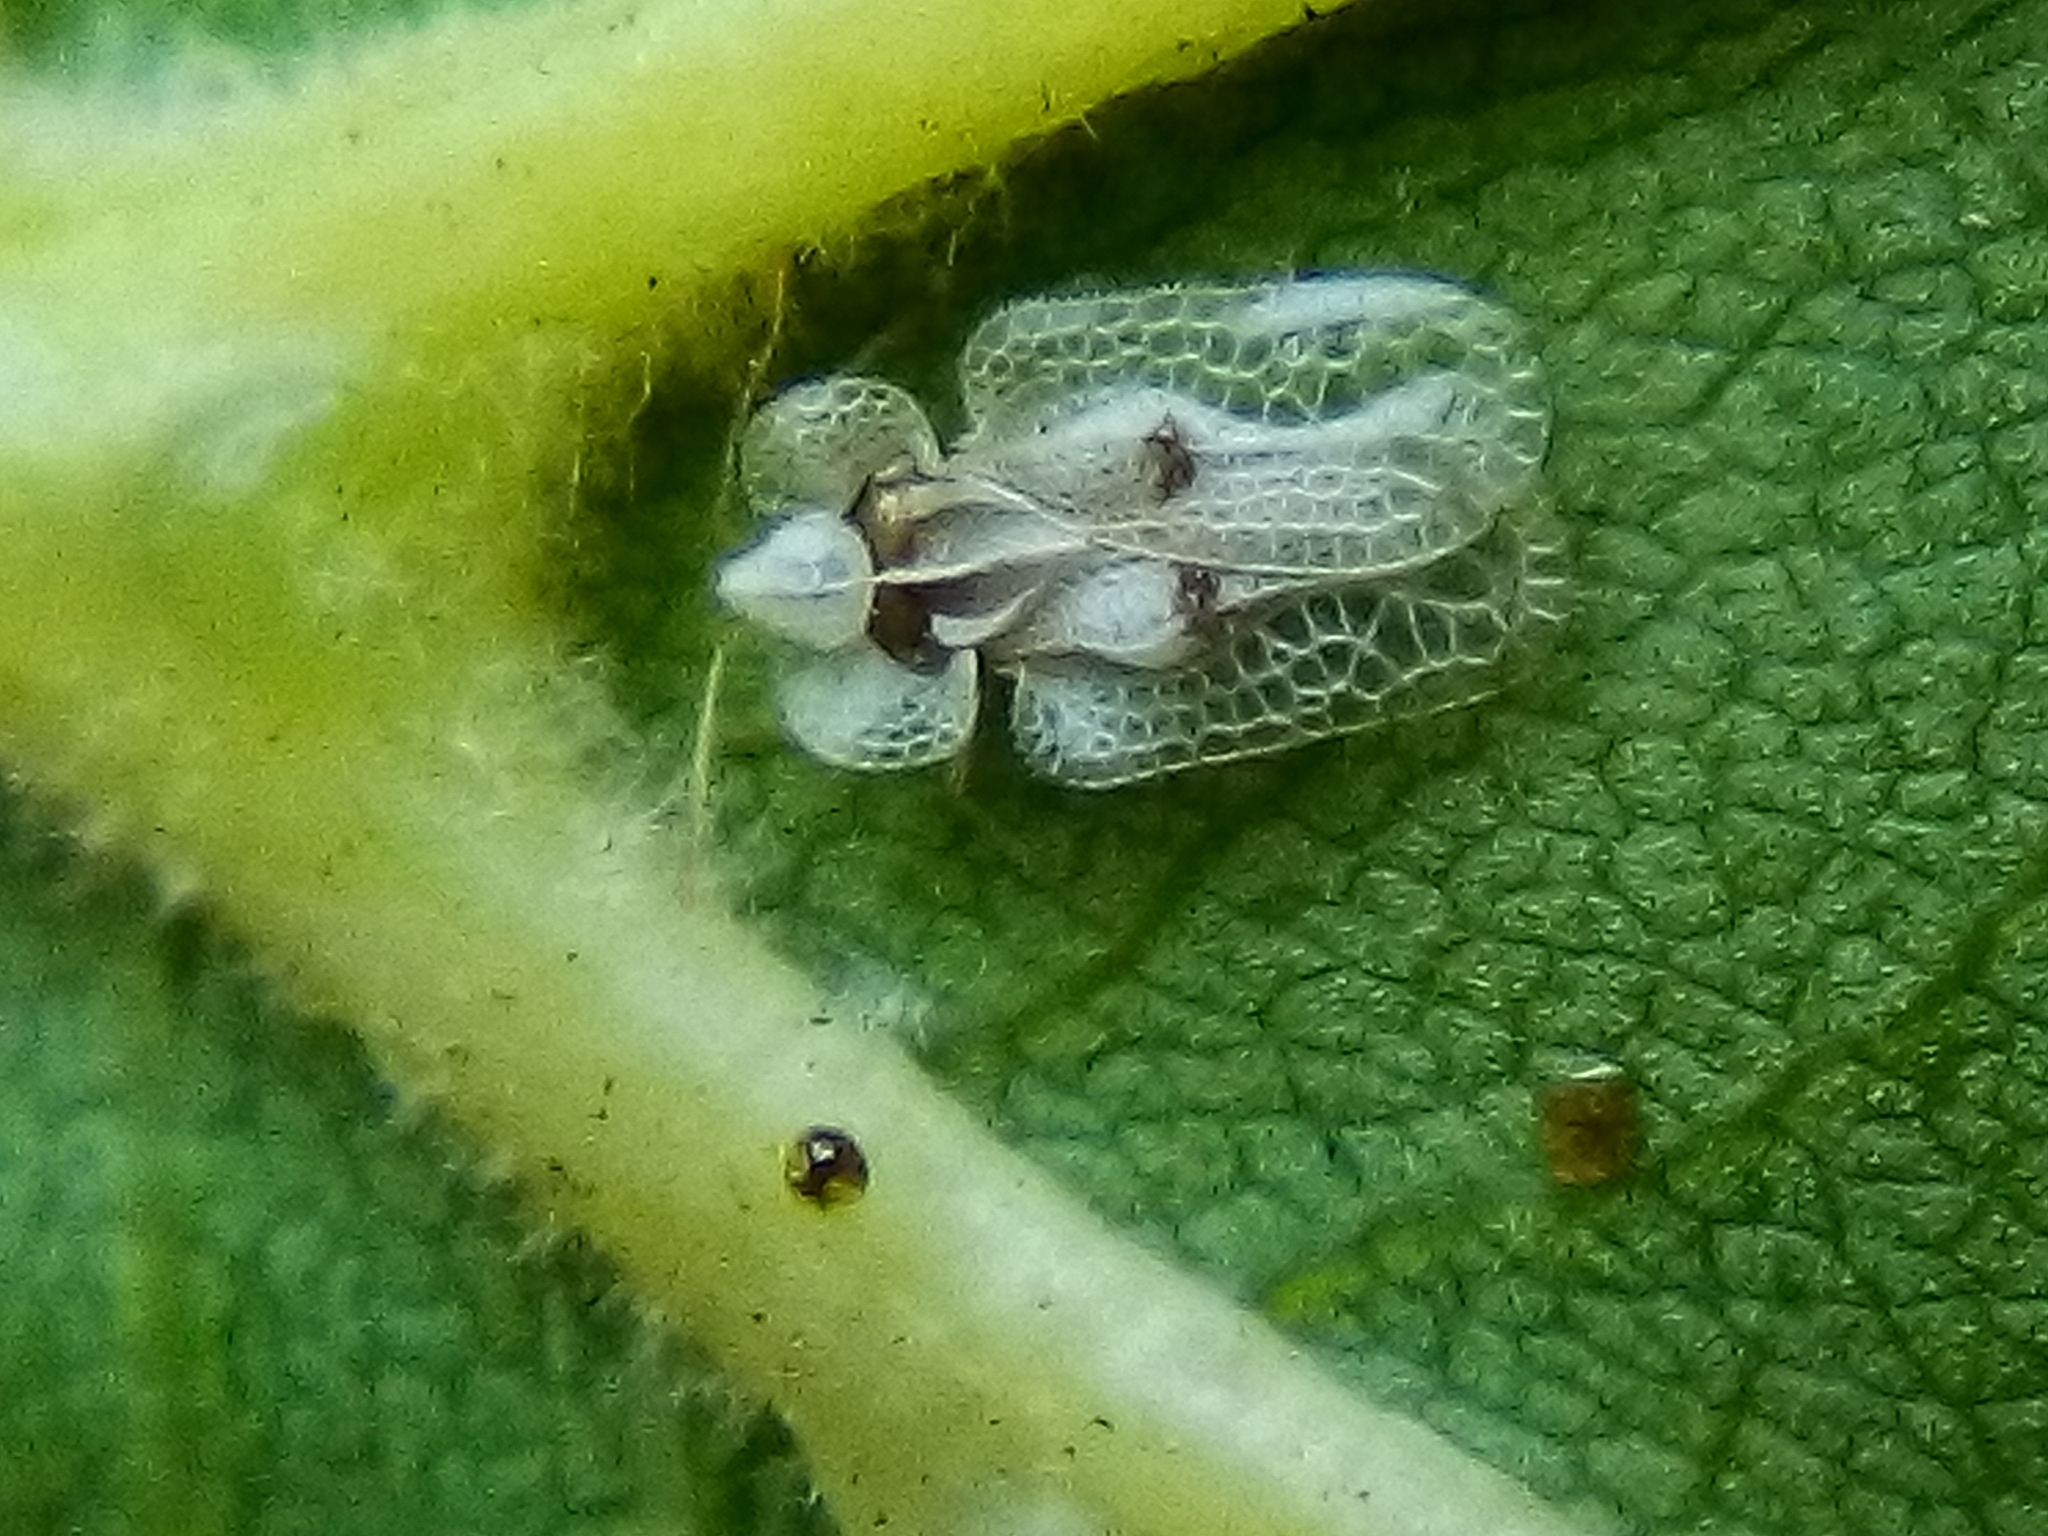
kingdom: Animalia
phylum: Arthropoda
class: Insecta
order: Hemiptera
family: Tingidae
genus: Corythucha
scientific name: Corythucha ciliata
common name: Sycamore lace bug
